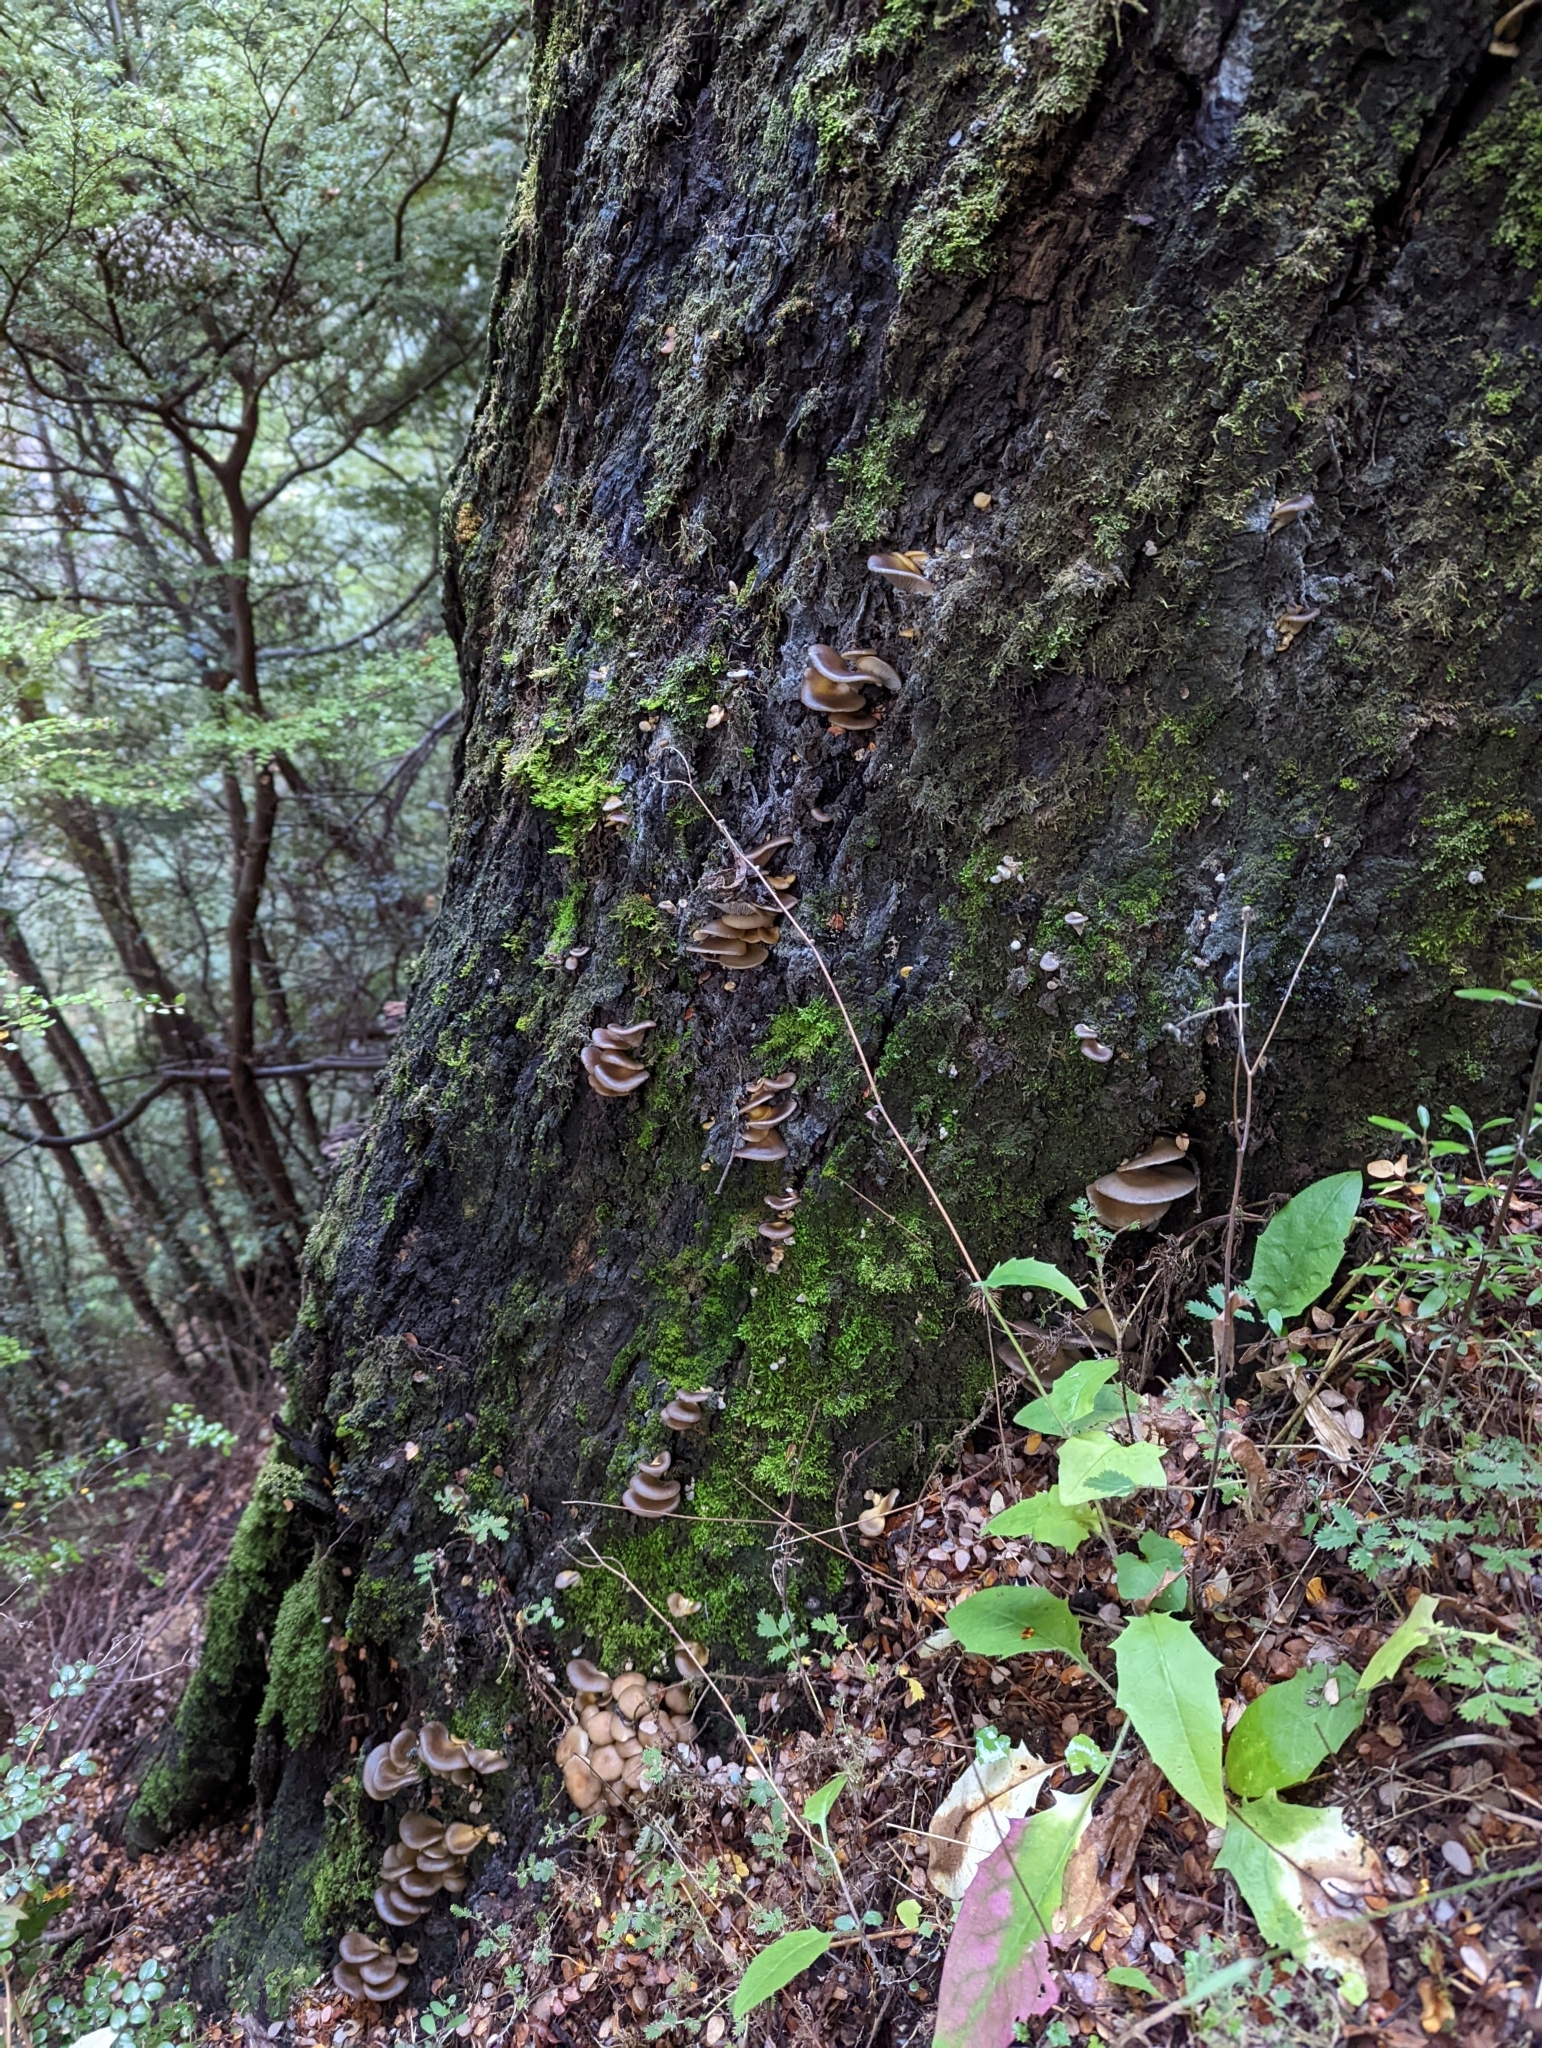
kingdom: Fungi
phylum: Basidiomycota
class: Agaricomycetes
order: Agaricales
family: Physalacriaceae
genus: Armillaria
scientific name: Armillaria novae-zelandiae
